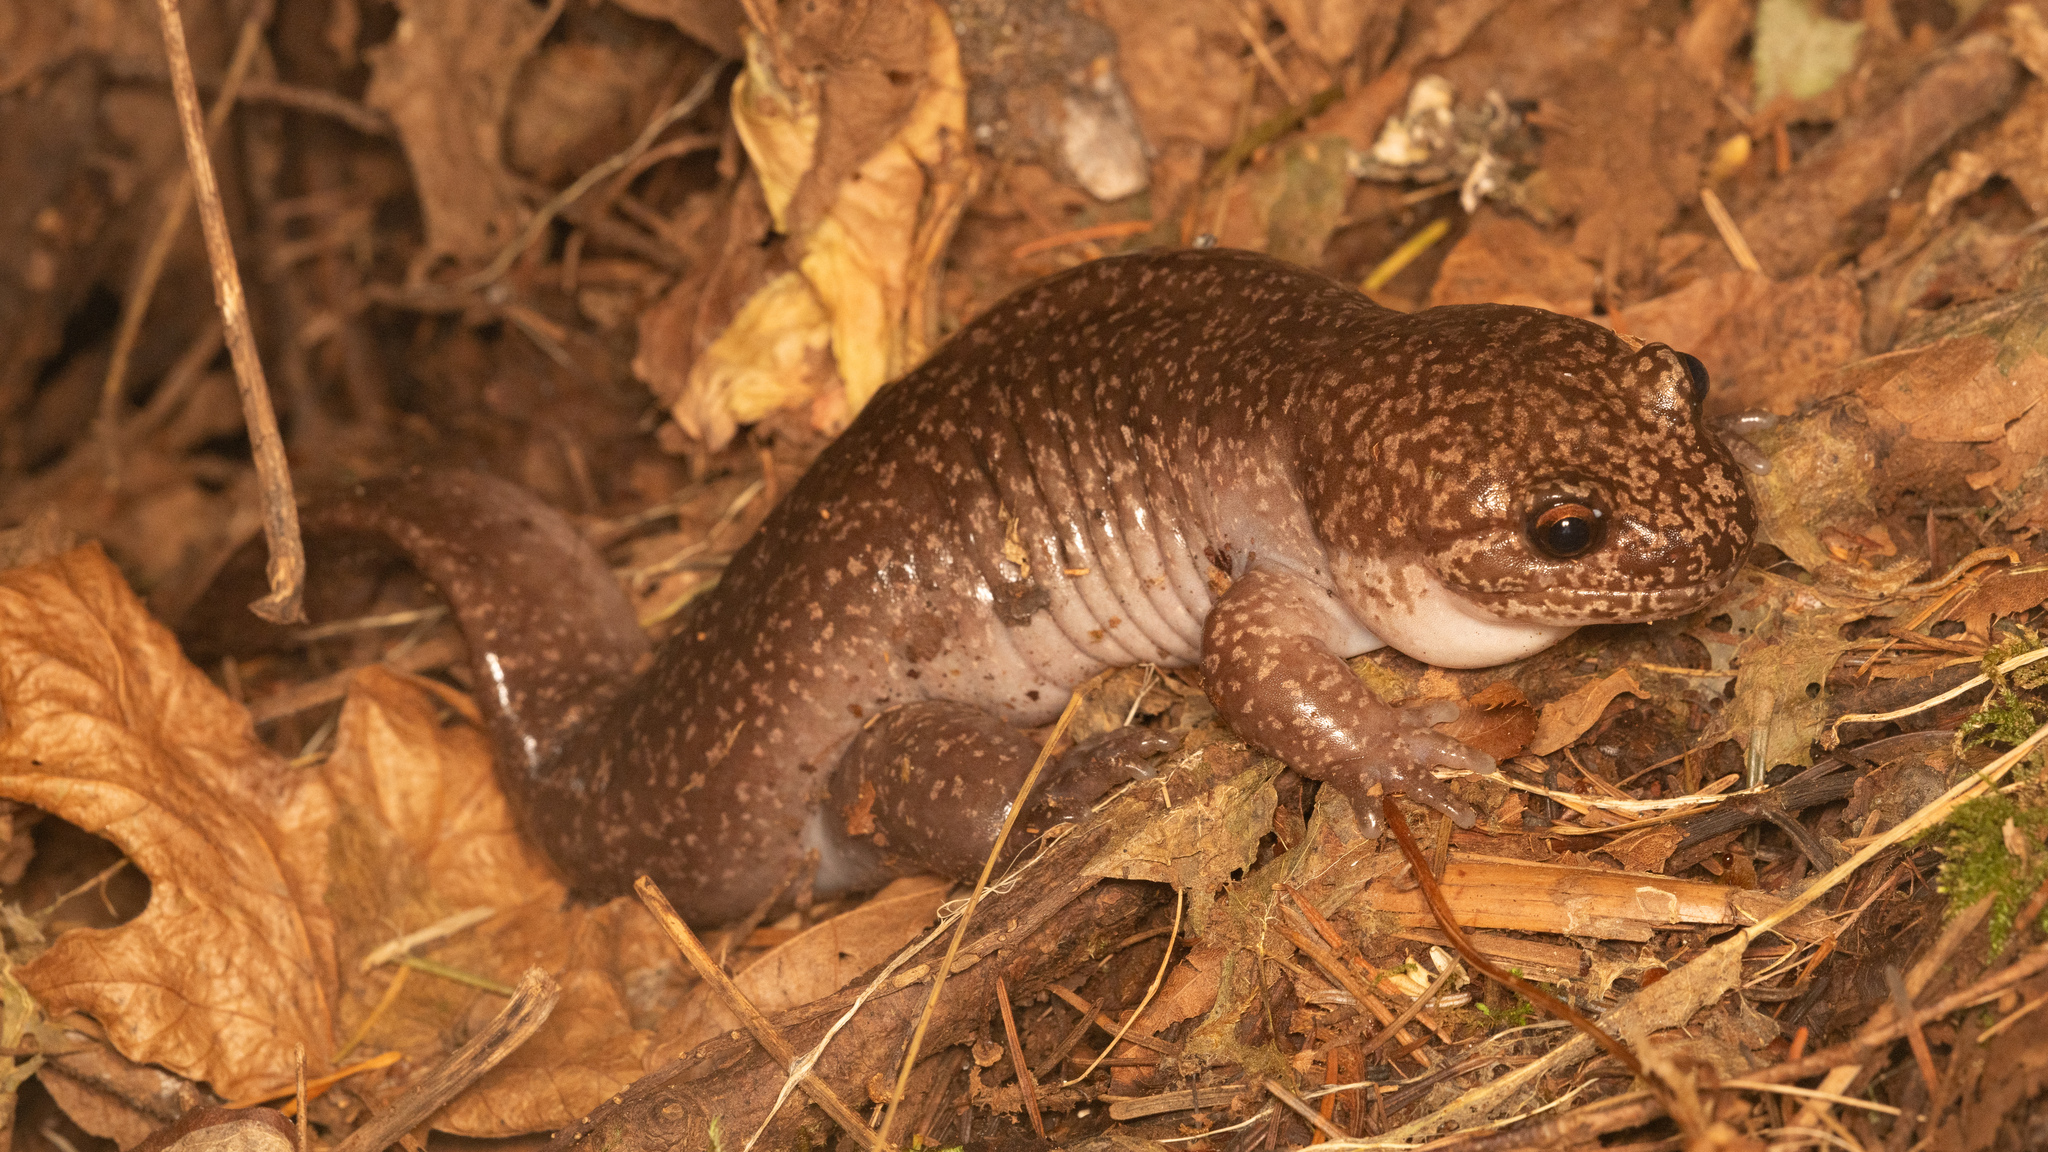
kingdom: Animalia
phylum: Chordata
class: Amphibia
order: Caudata
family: Ambystomatidae
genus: Dicamptodon
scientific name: Dicamptodon tenebrosus
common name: Coastal giant salamander
